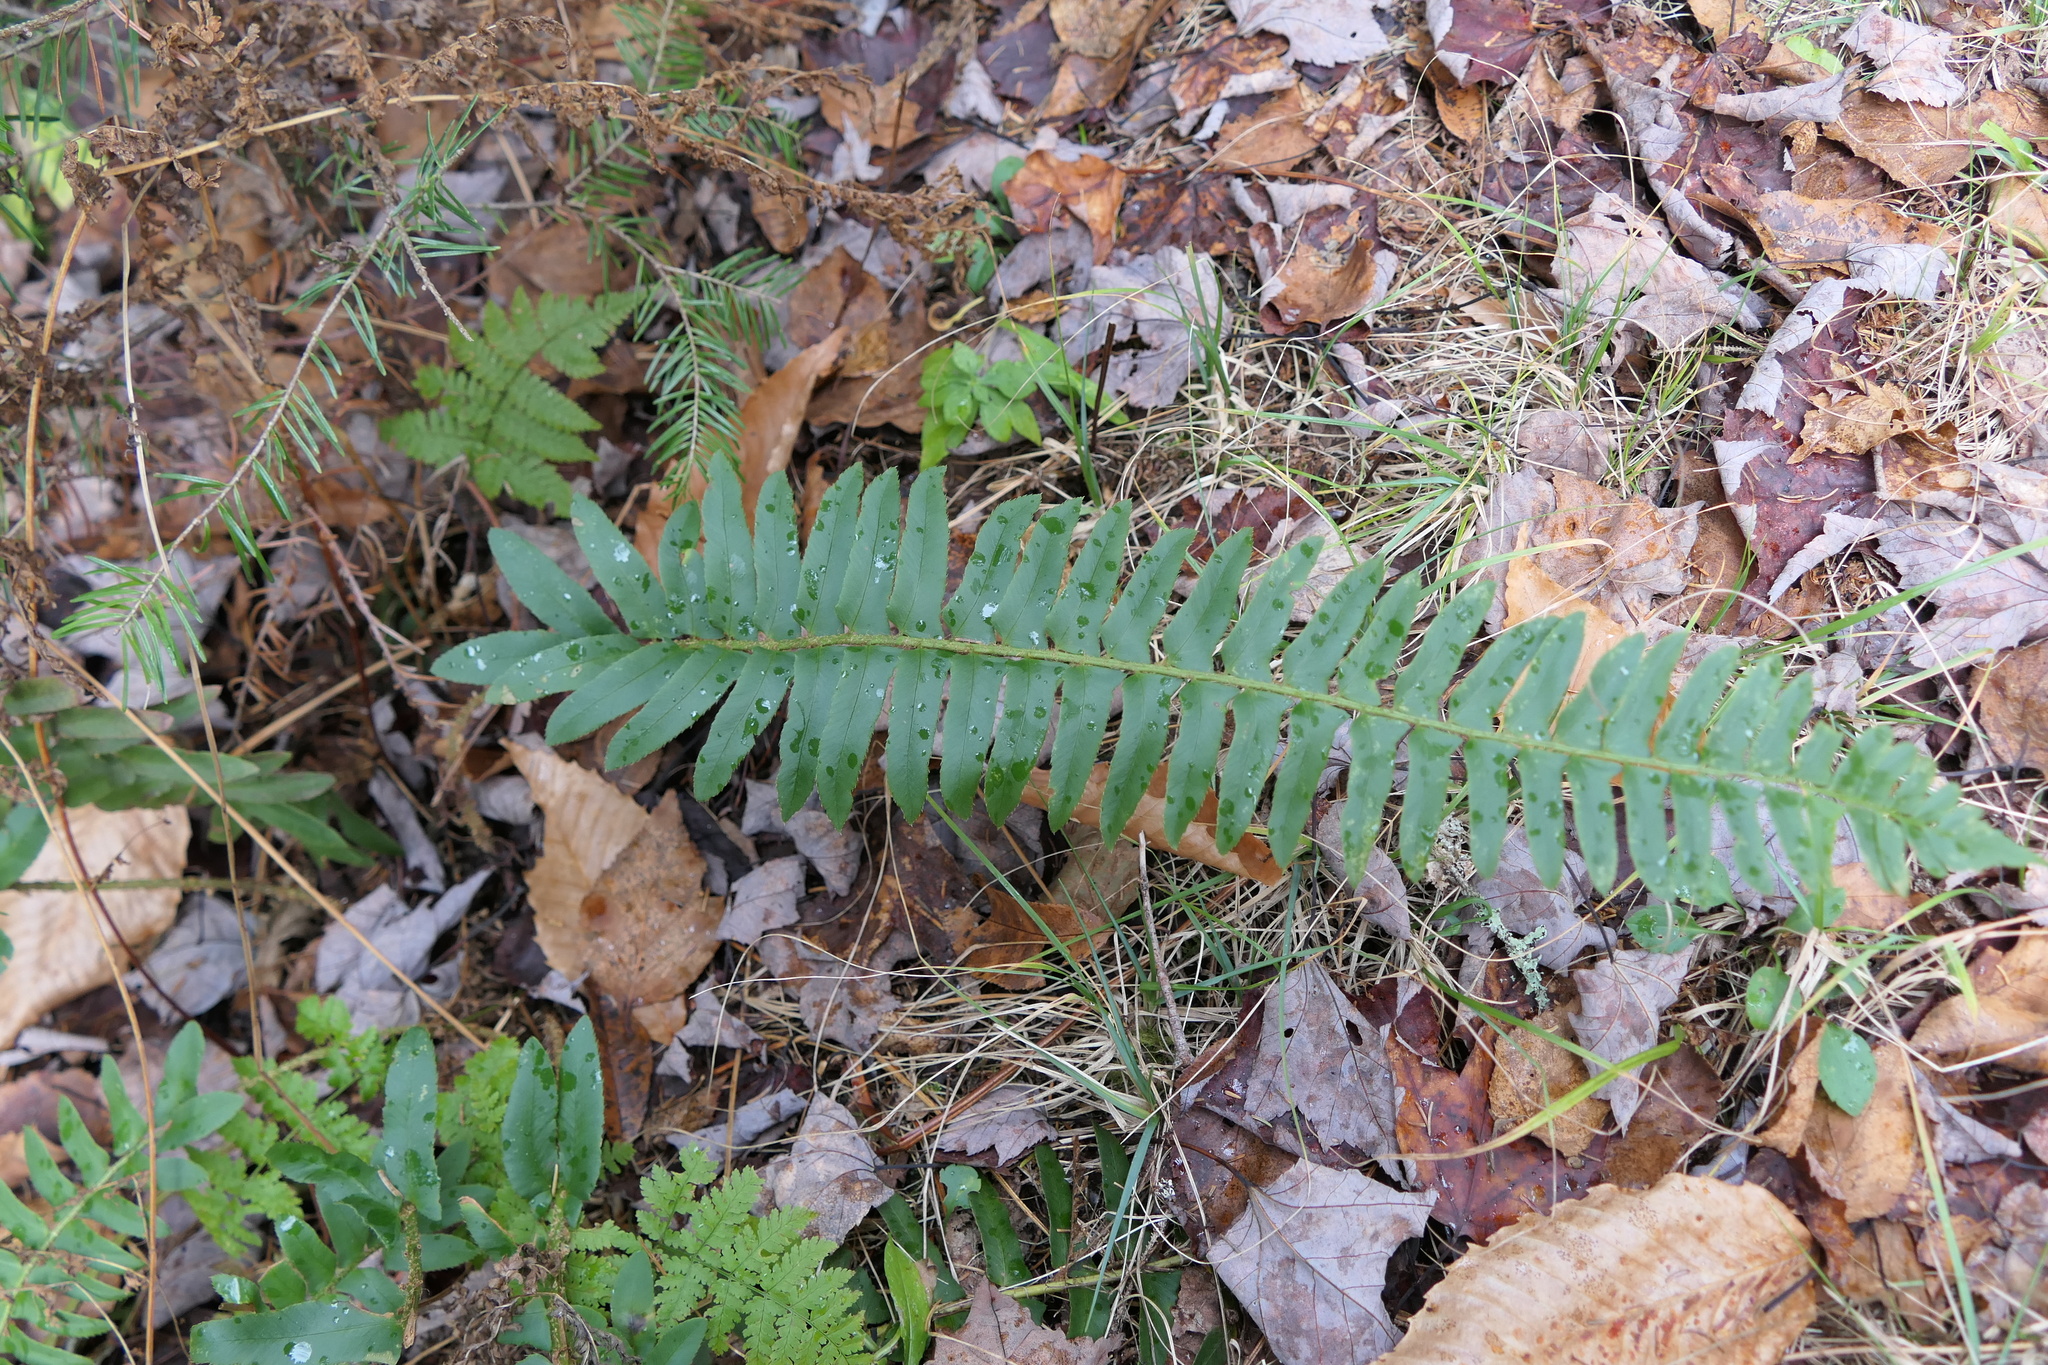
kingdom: Plantae
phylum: Tracheophyta
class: Polypodiopsida
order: Polypodiales
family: Dryopteridaceae
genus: Polystichum
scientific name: Polystichum acrostichoides
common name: Christmas fern
